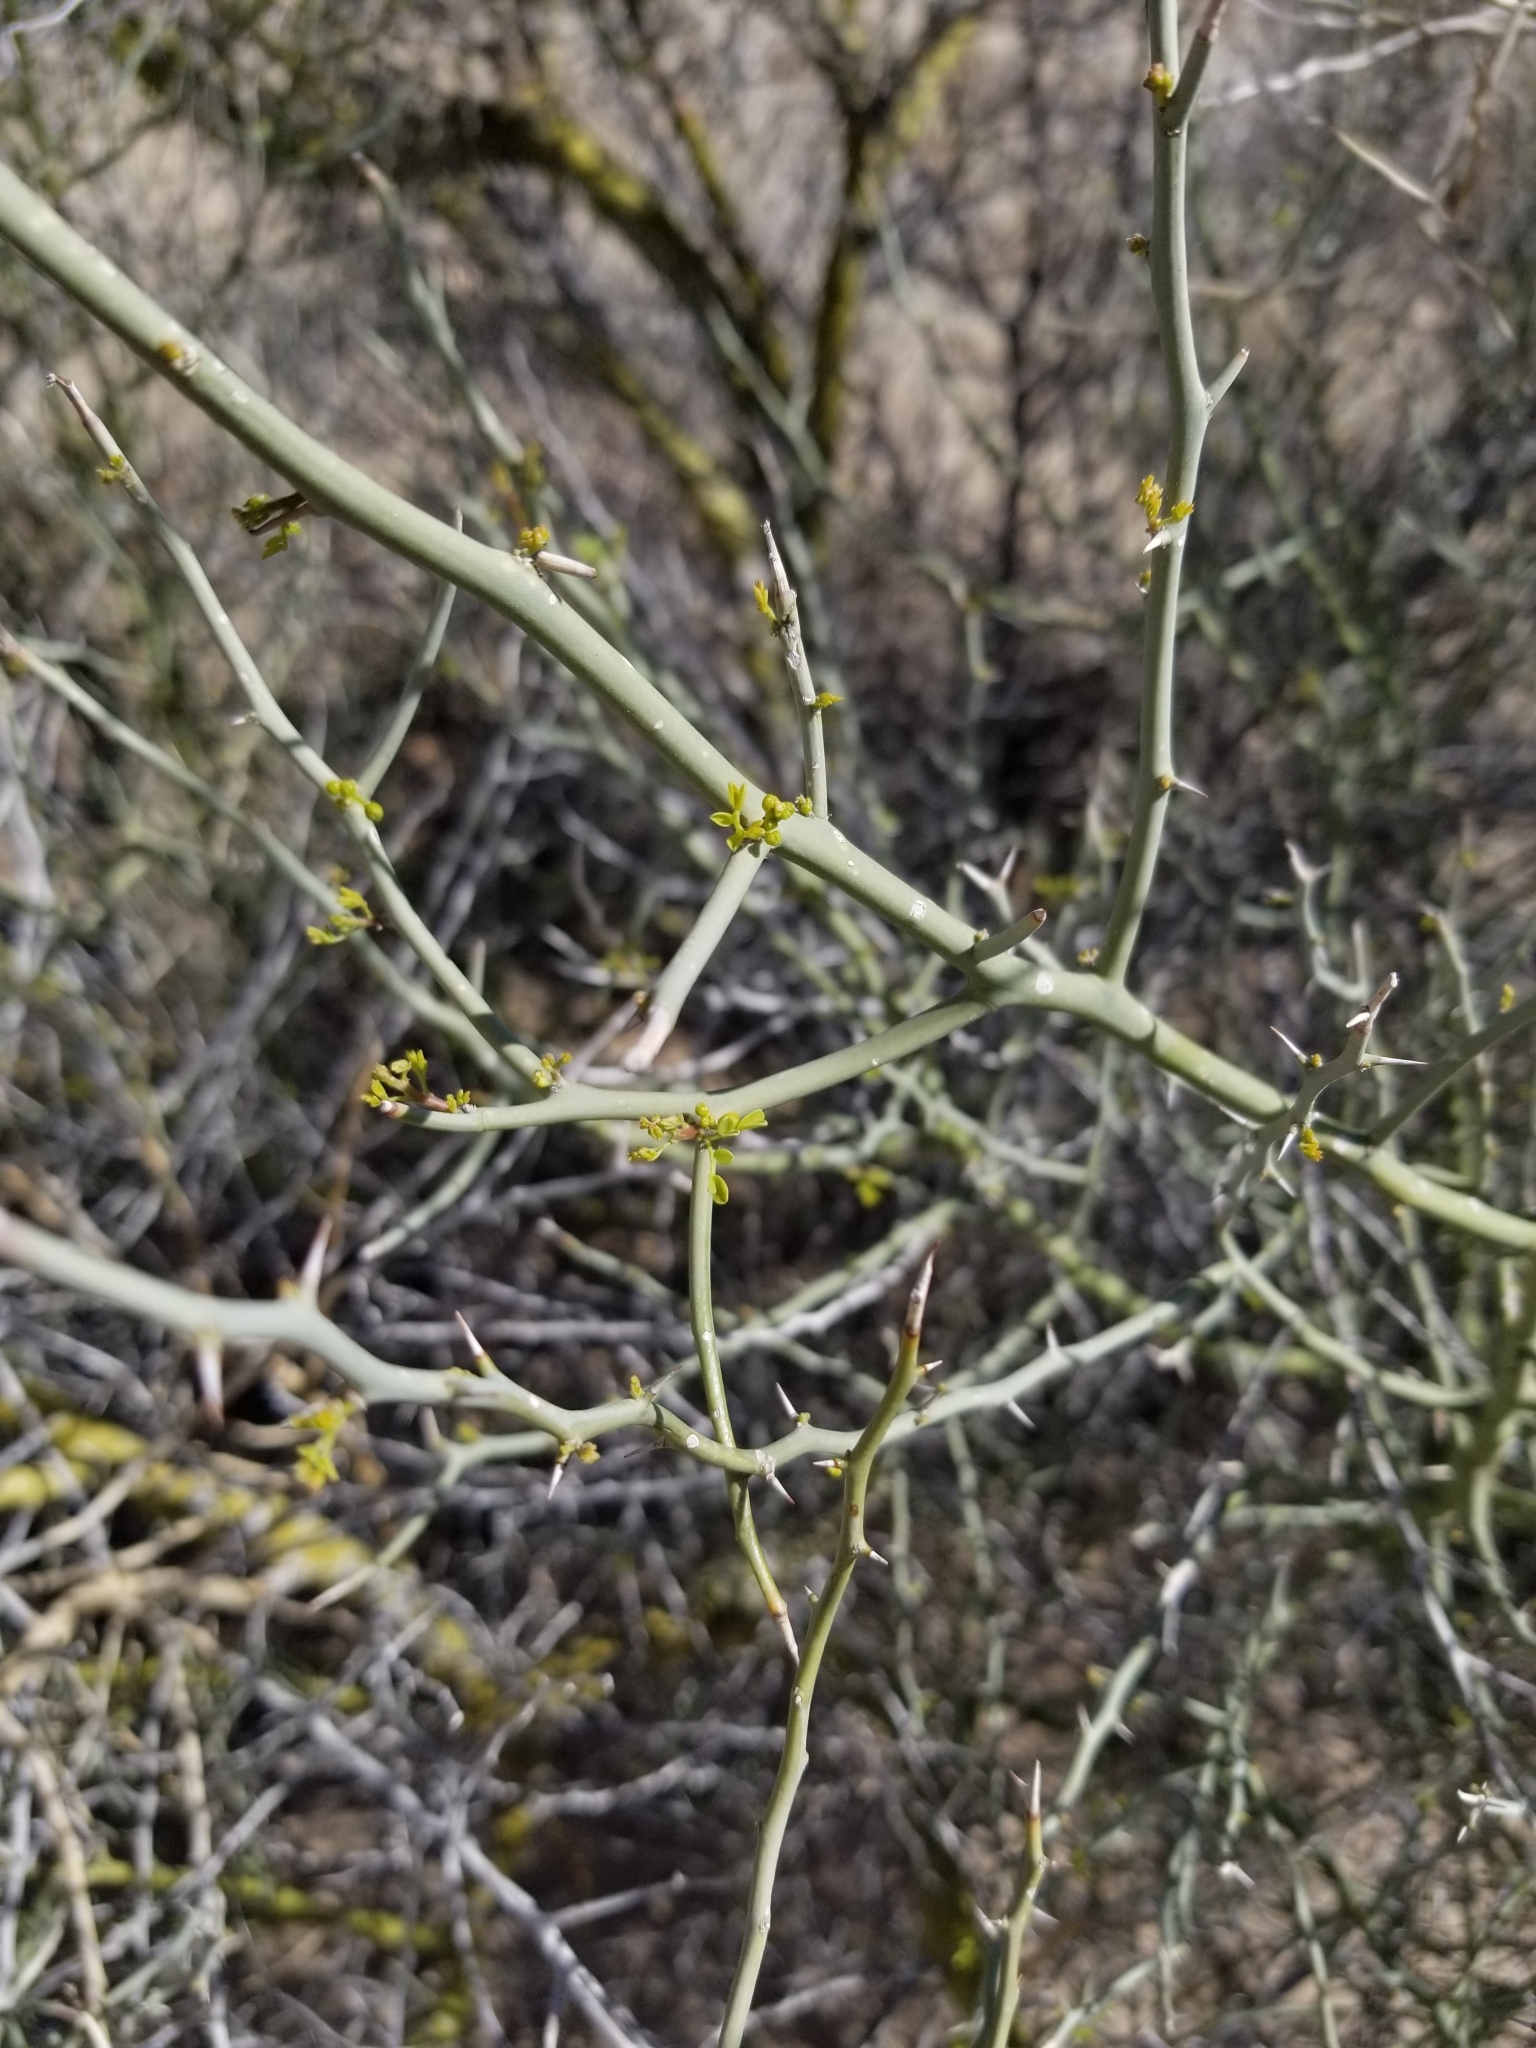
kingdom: Plantae
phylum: Tracheophyta
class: Magnoliopsida
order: Fabales
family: Fabaceae
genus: Parkinsonia
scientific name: Parkinsonia florida
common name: Blue paloverde
